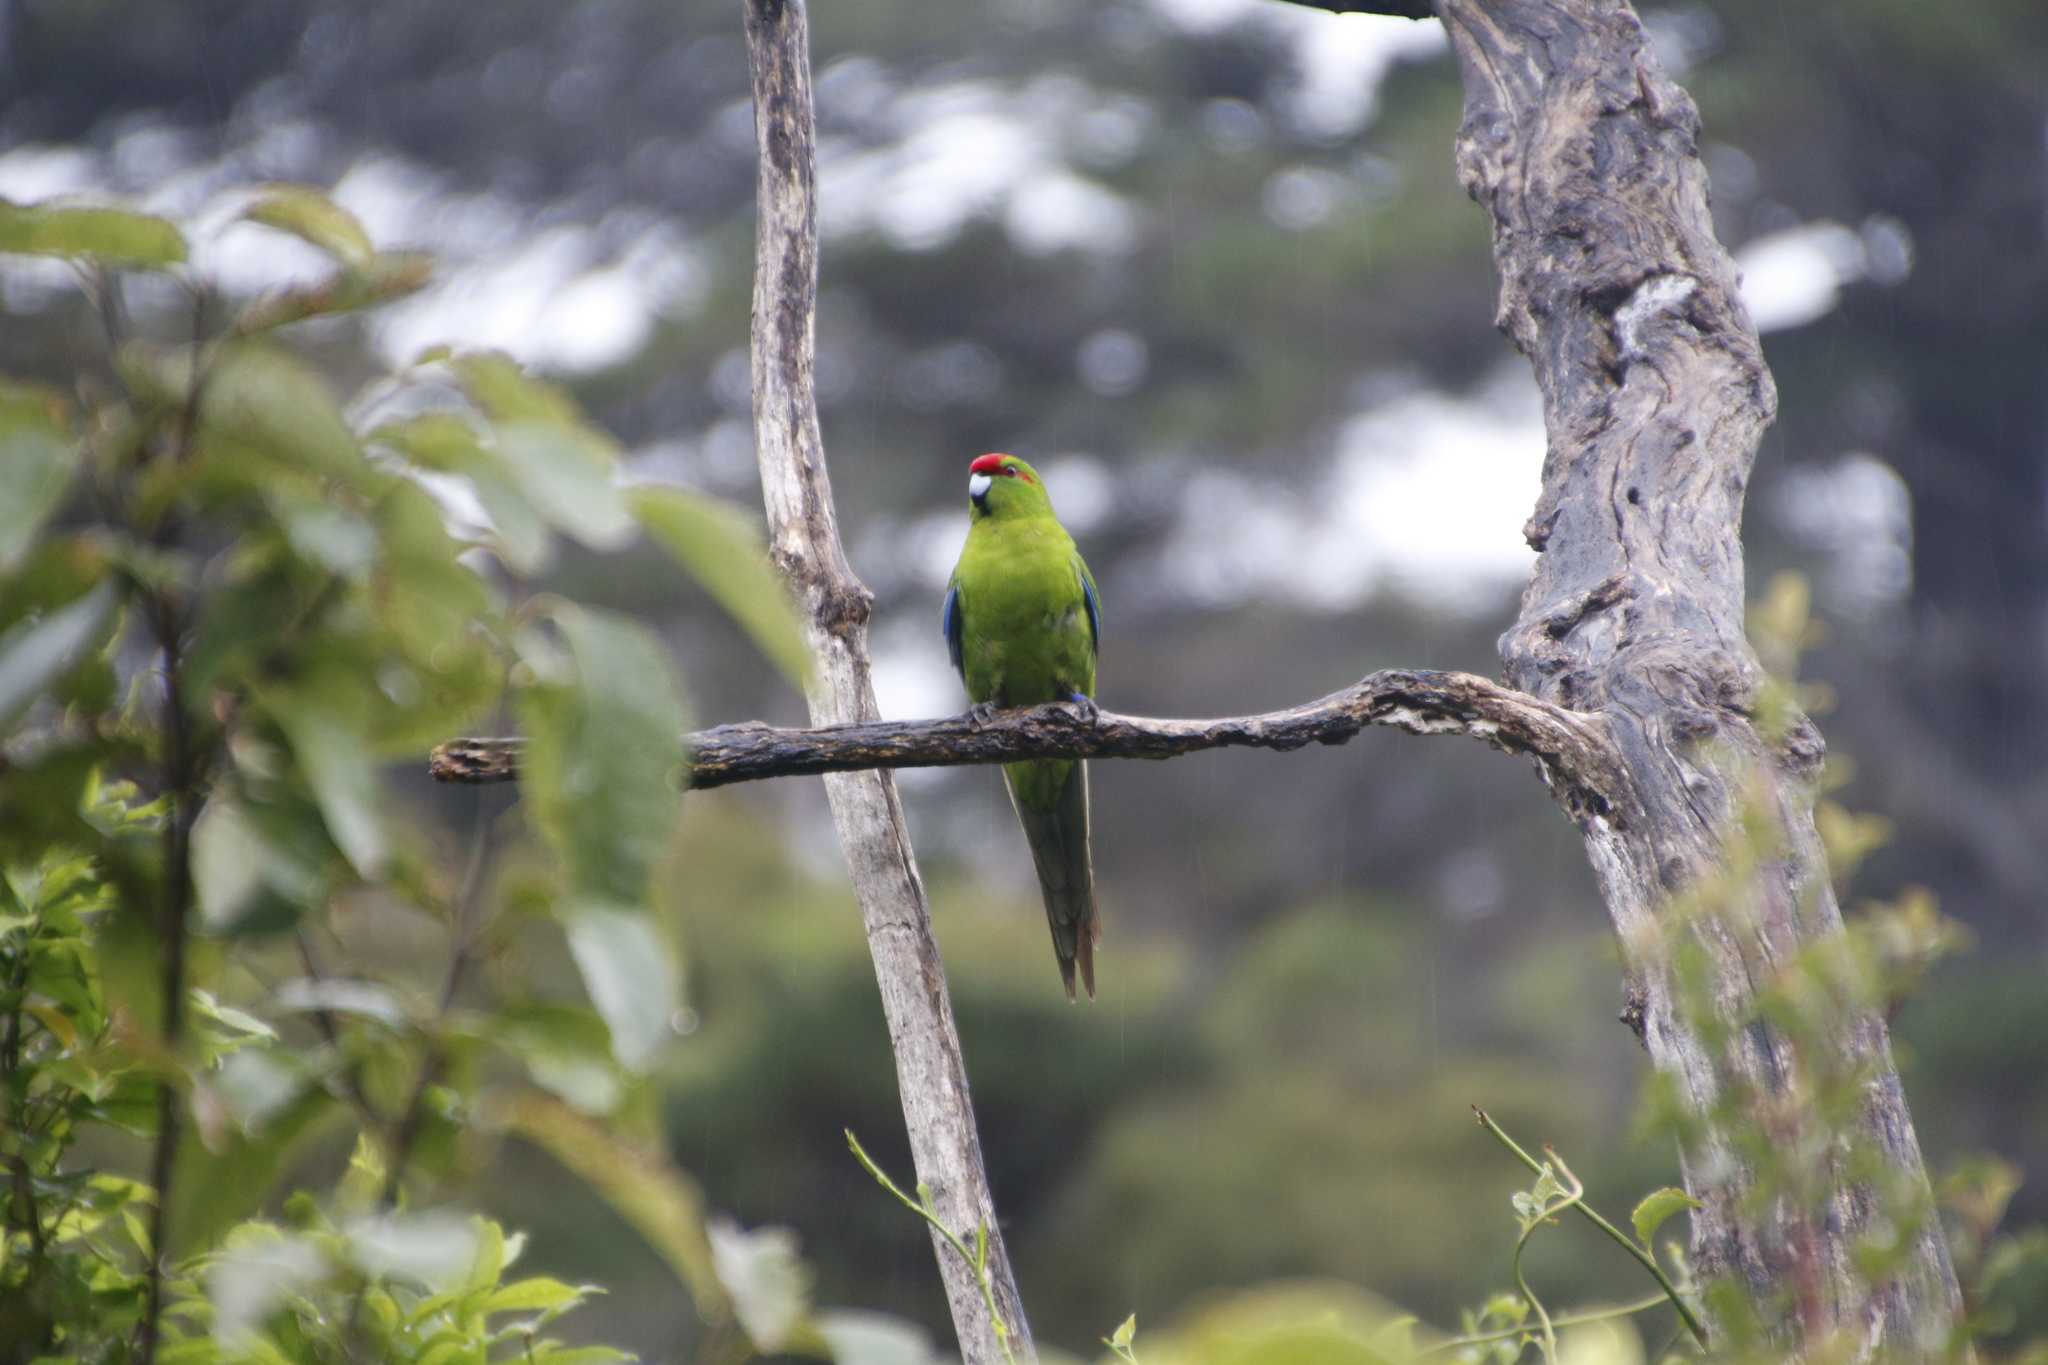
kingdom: Animalia
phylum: Chordata
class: Aves
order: Psittaciformes
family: Psittacidae
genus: Cyanoramphus
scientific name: Cyanoramphus novaezelandiae
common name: Red-fronted parakeet
